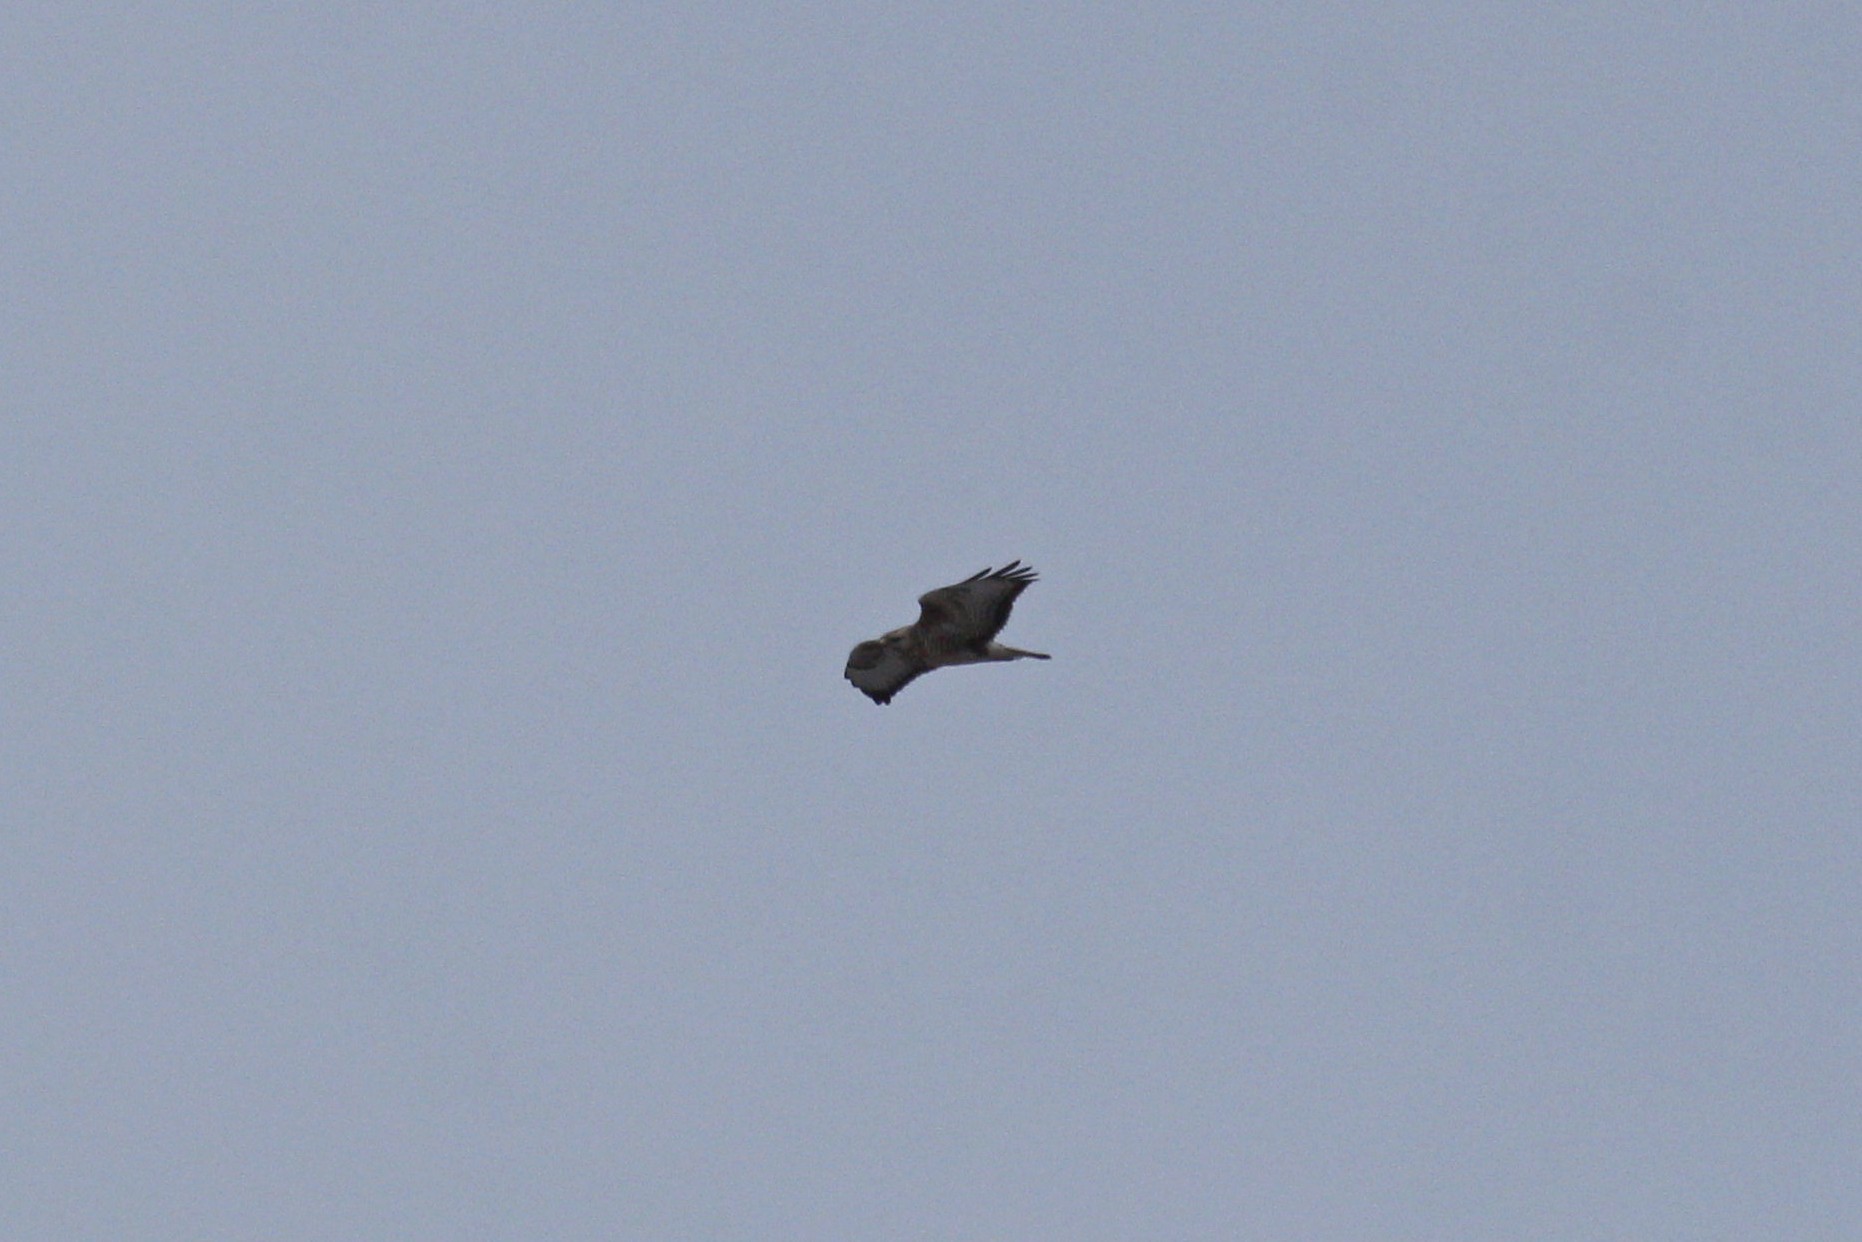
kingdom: Animalia
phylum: Chordata
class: Aves
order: Accipitriformes
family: Accipitridae
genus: Buteo
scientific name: Buteo buteo
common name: Common buzzard
